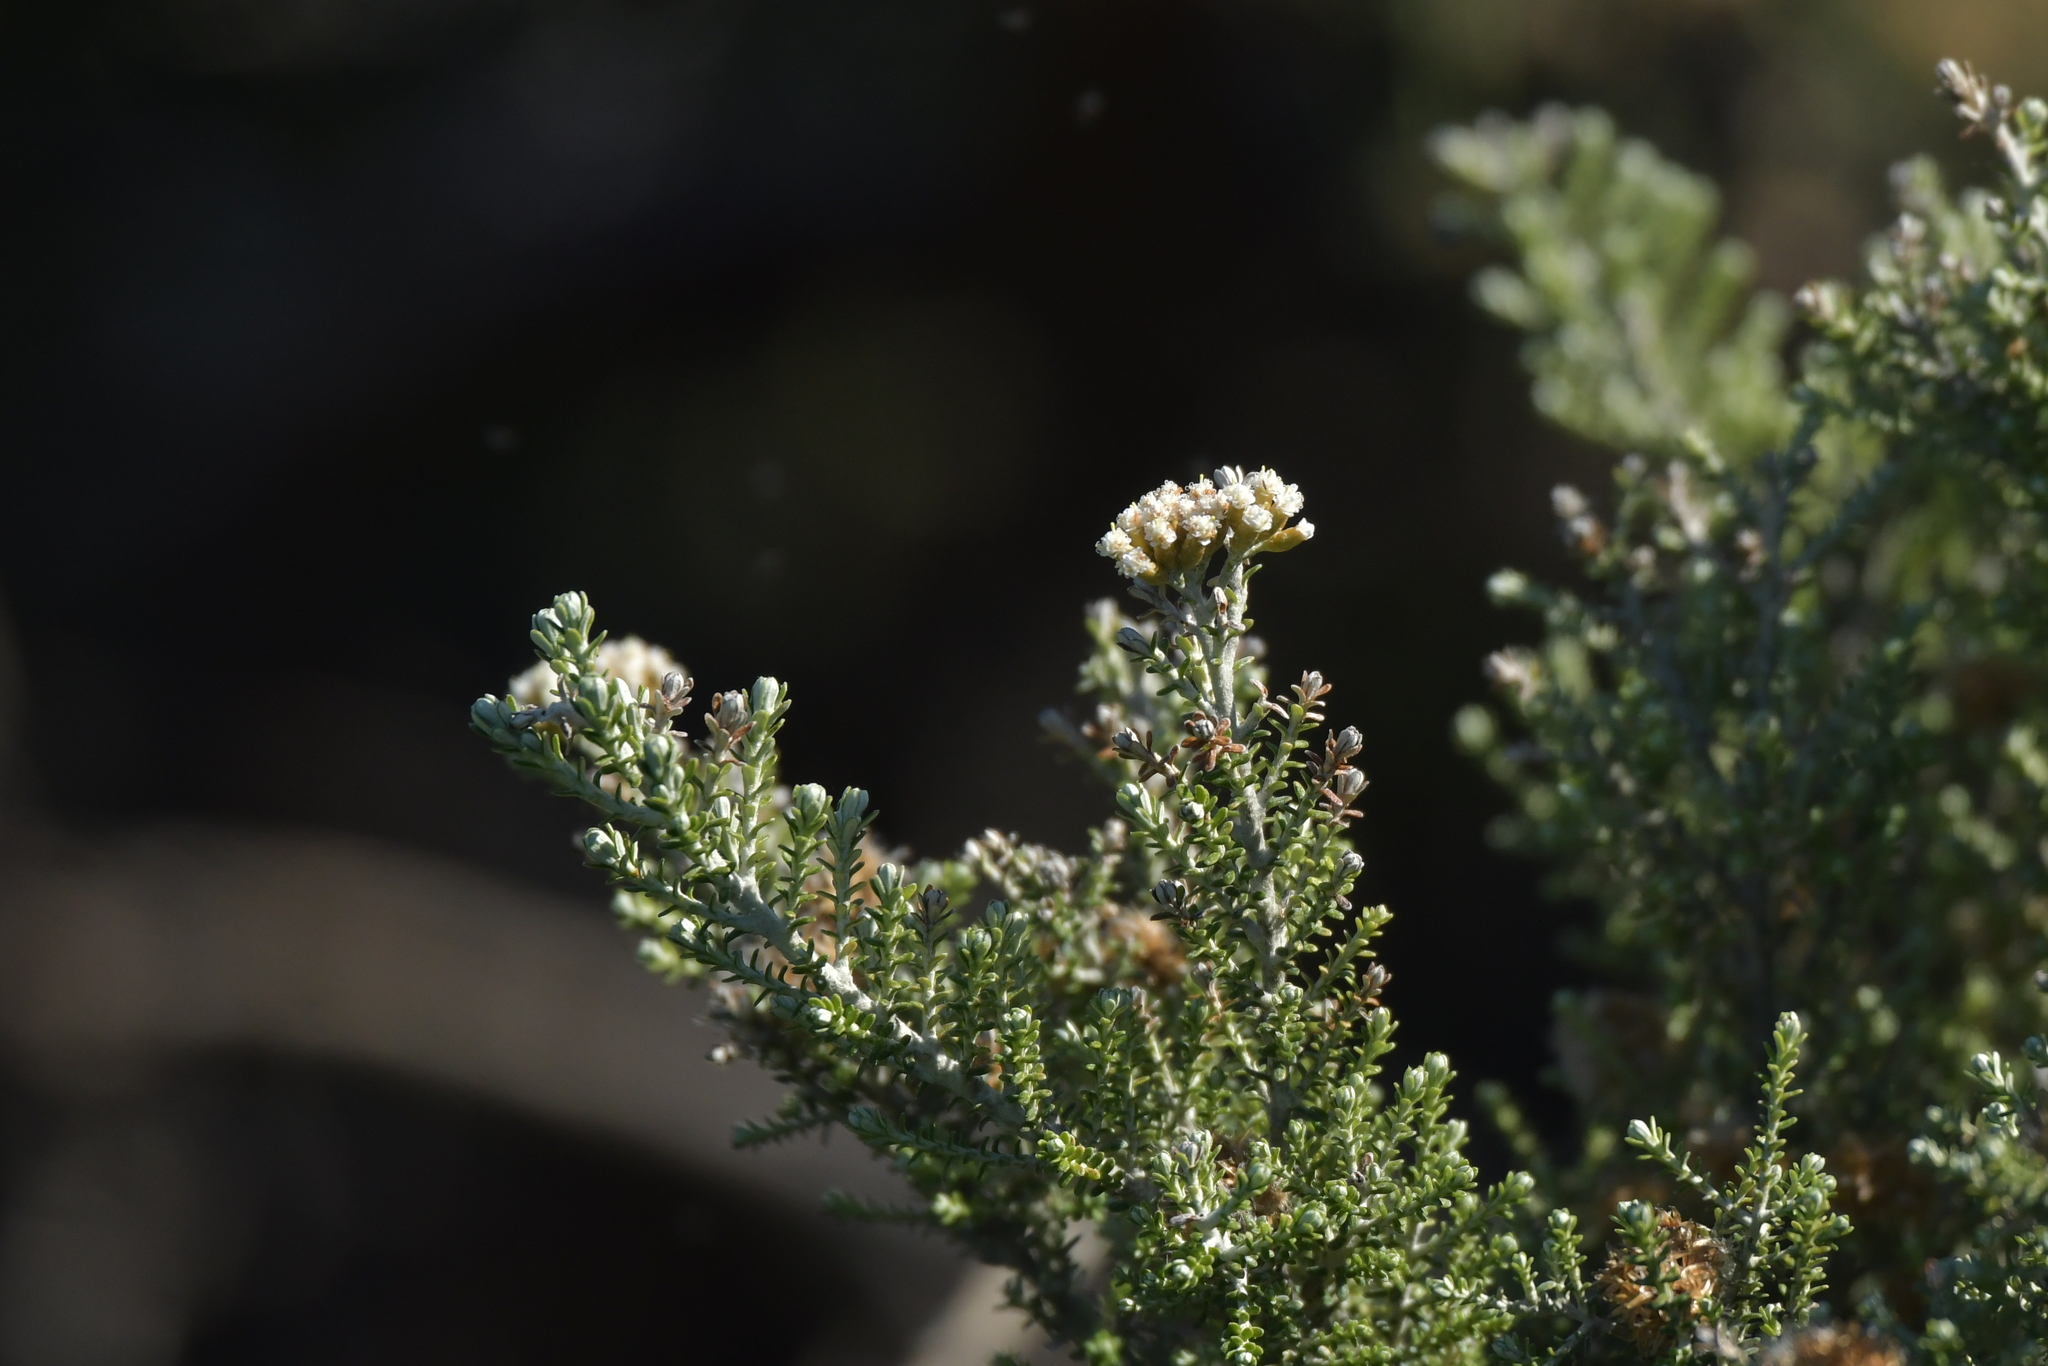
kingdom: Plantae
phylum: Tracheophyta
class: Magnoliopsida
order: Asterales
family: Asteraceae
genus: Ozothamnus
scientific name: Ozothamnus leptophyllus
